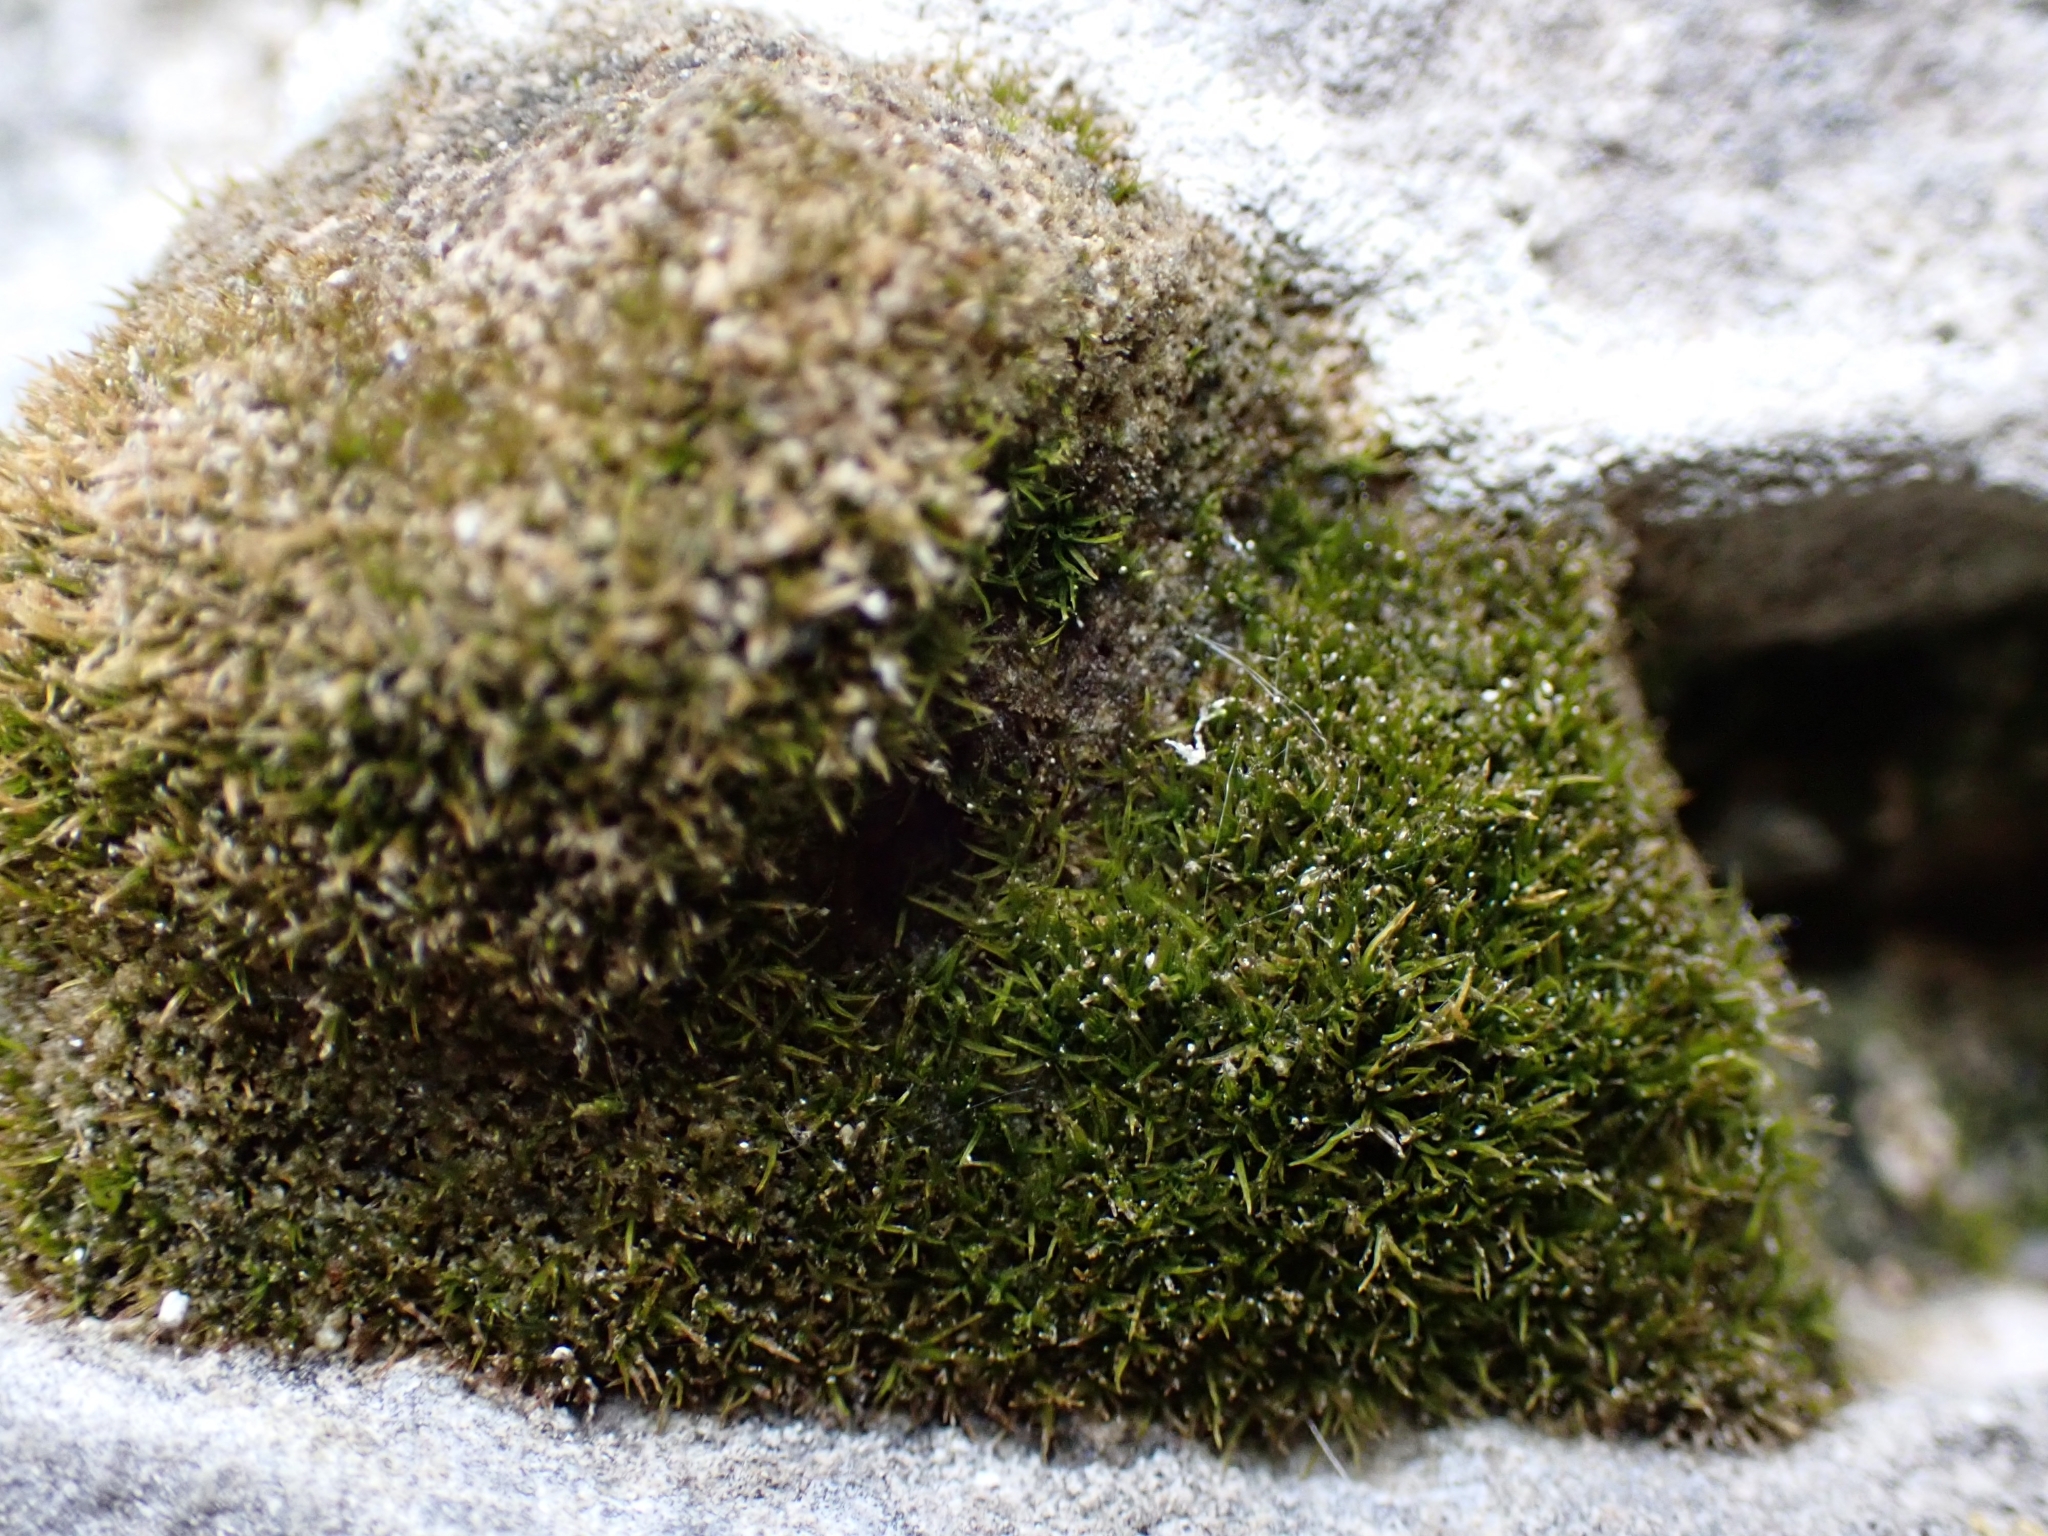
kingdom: Plantae
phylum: Bryophyta
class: Bryopsida
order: Pottiales
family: Pottiaceae
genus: Eucladium
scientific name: Eucladium verticillatum
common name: Whorled tufa-moss
